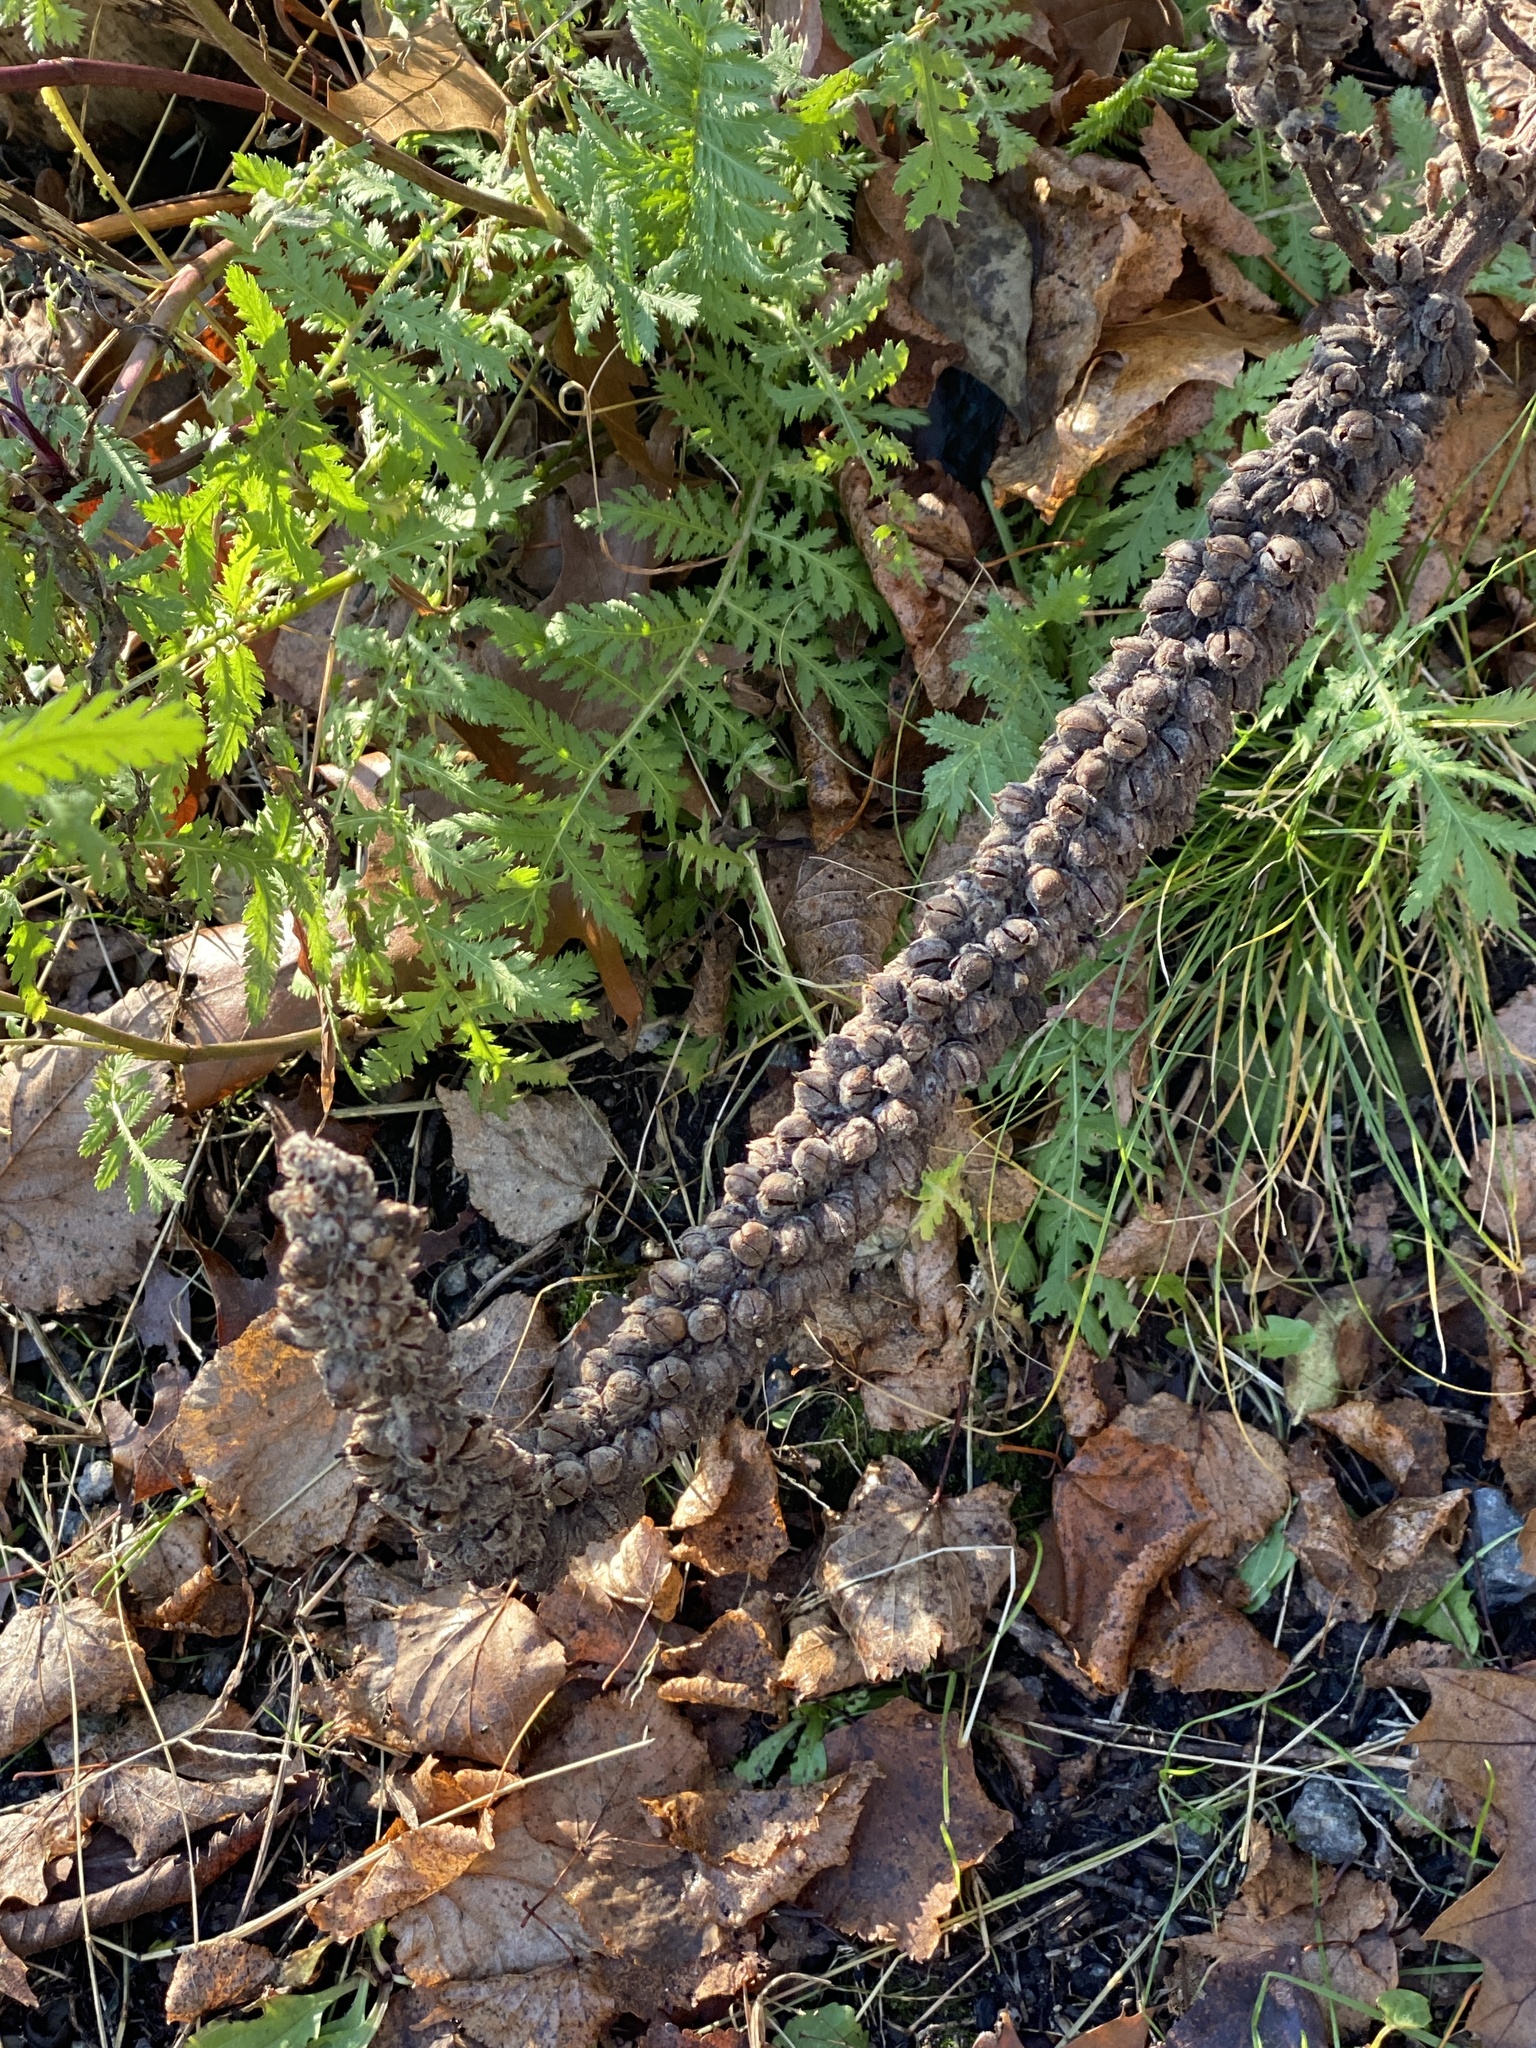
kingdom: Plantae
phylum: Tracheophyta
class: Magnoliopsida
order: Lamiales
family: Scrophulariaceae
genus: Verbascum
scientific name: Verbascum thapsus
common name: Common mullein
